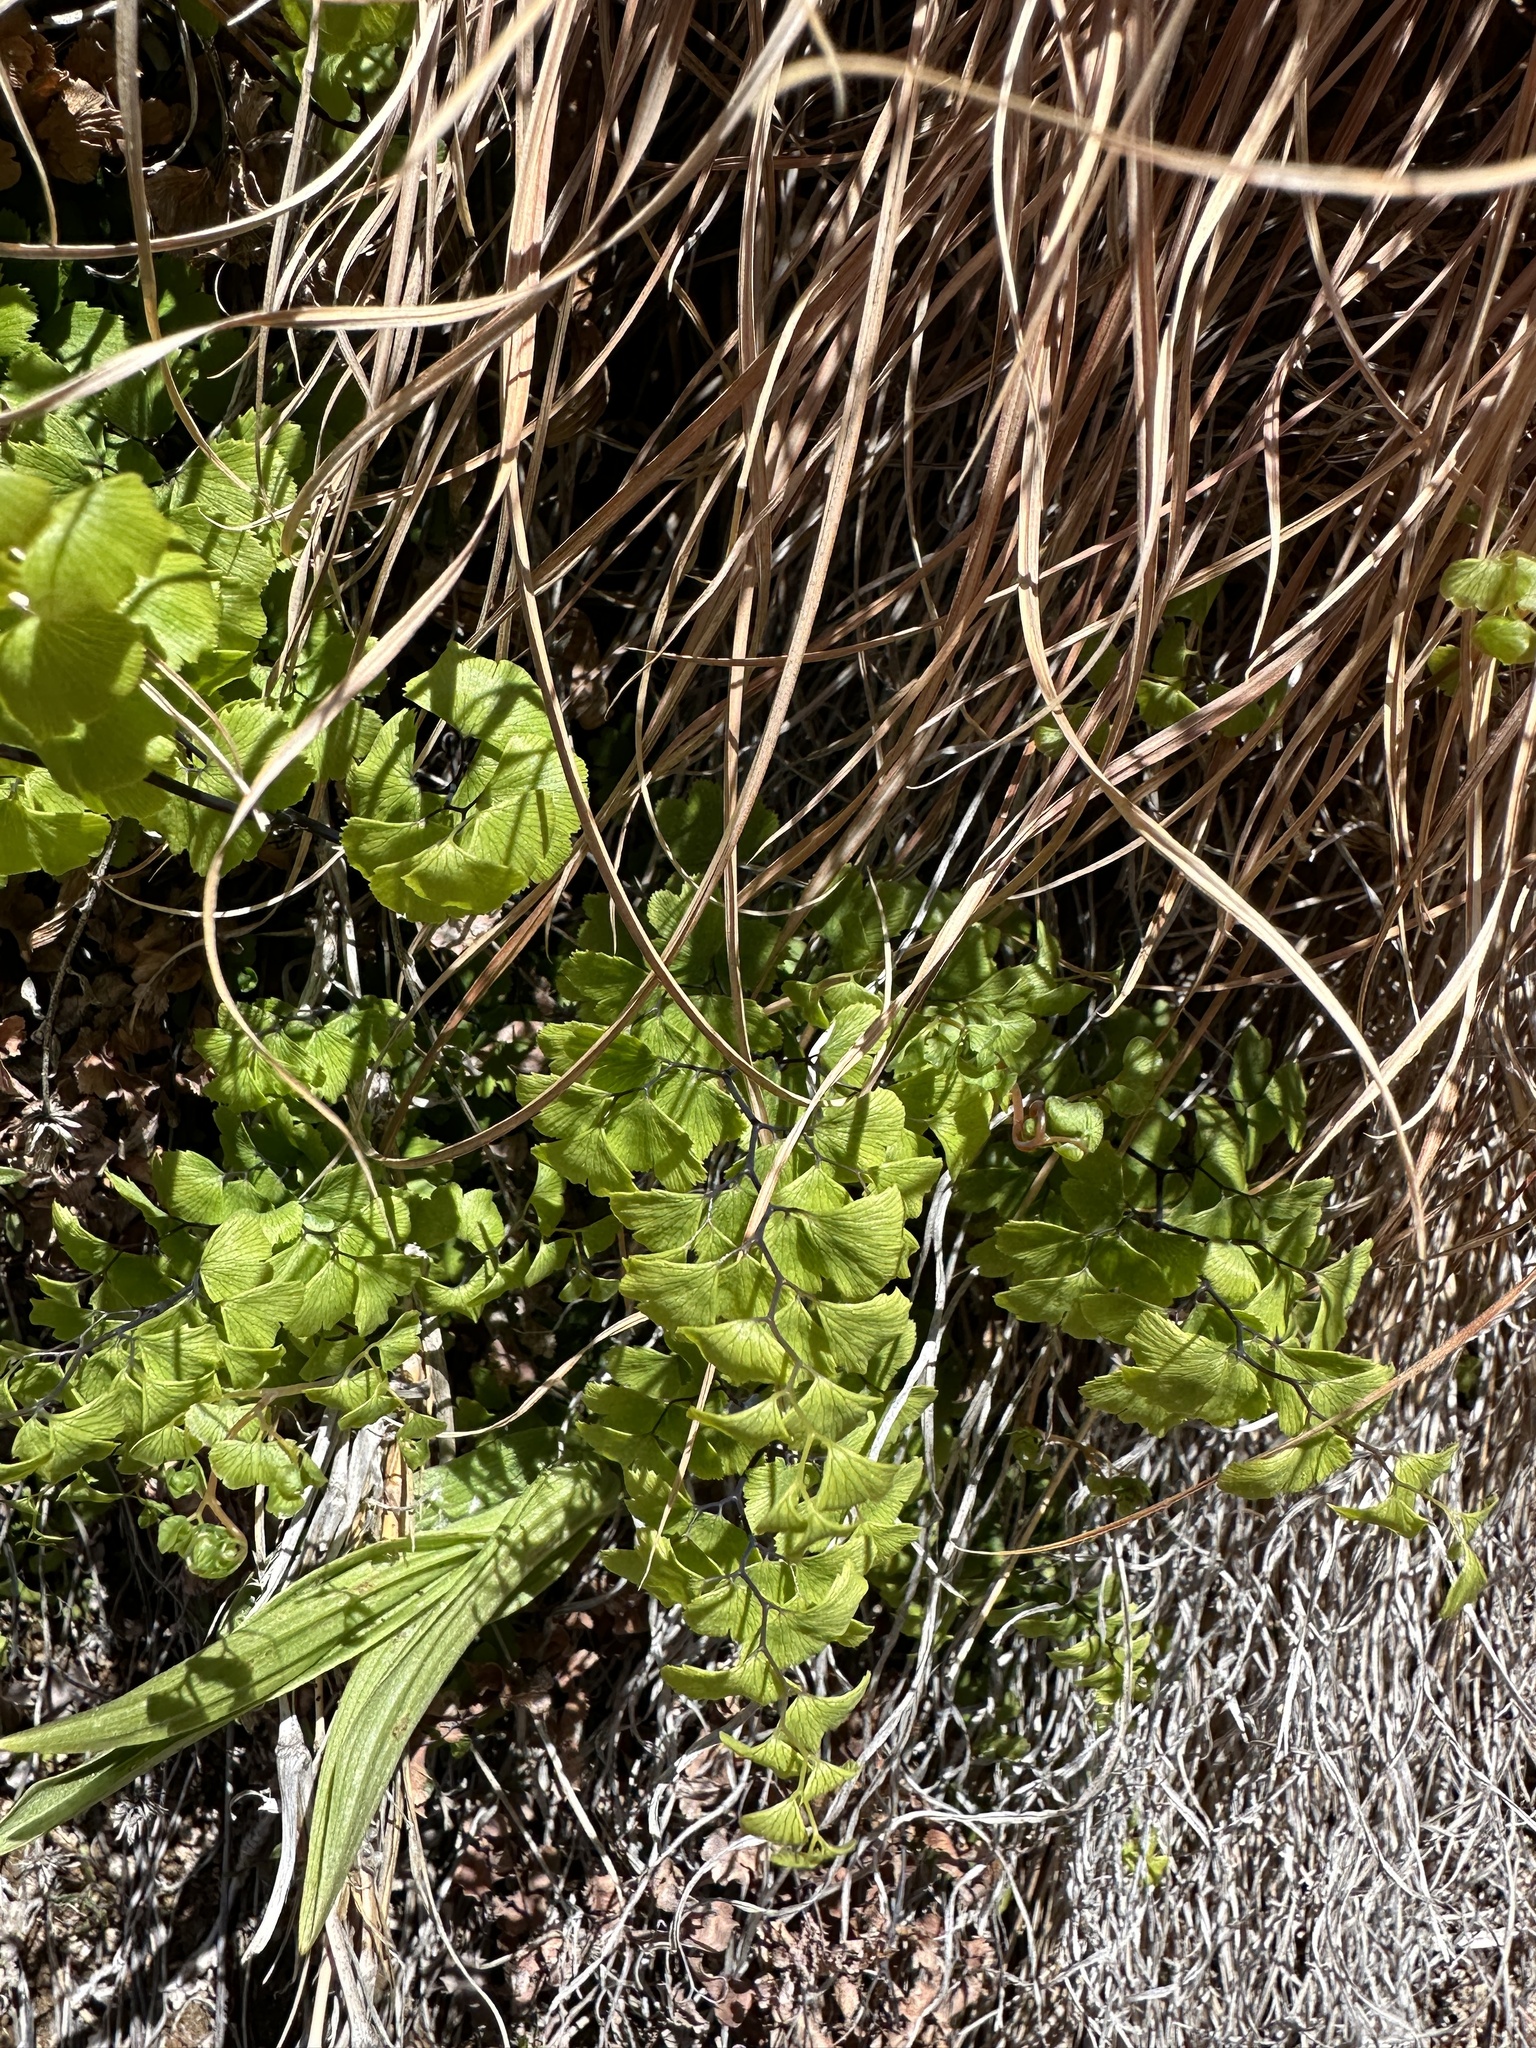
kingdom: Plantae
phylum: Tracheophyta
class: Polypodiopsida
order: Polypodiales
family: Pteridaceae
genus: Adiantum
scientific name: Adiantum capillus-veneris
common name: Maidenhair fern
